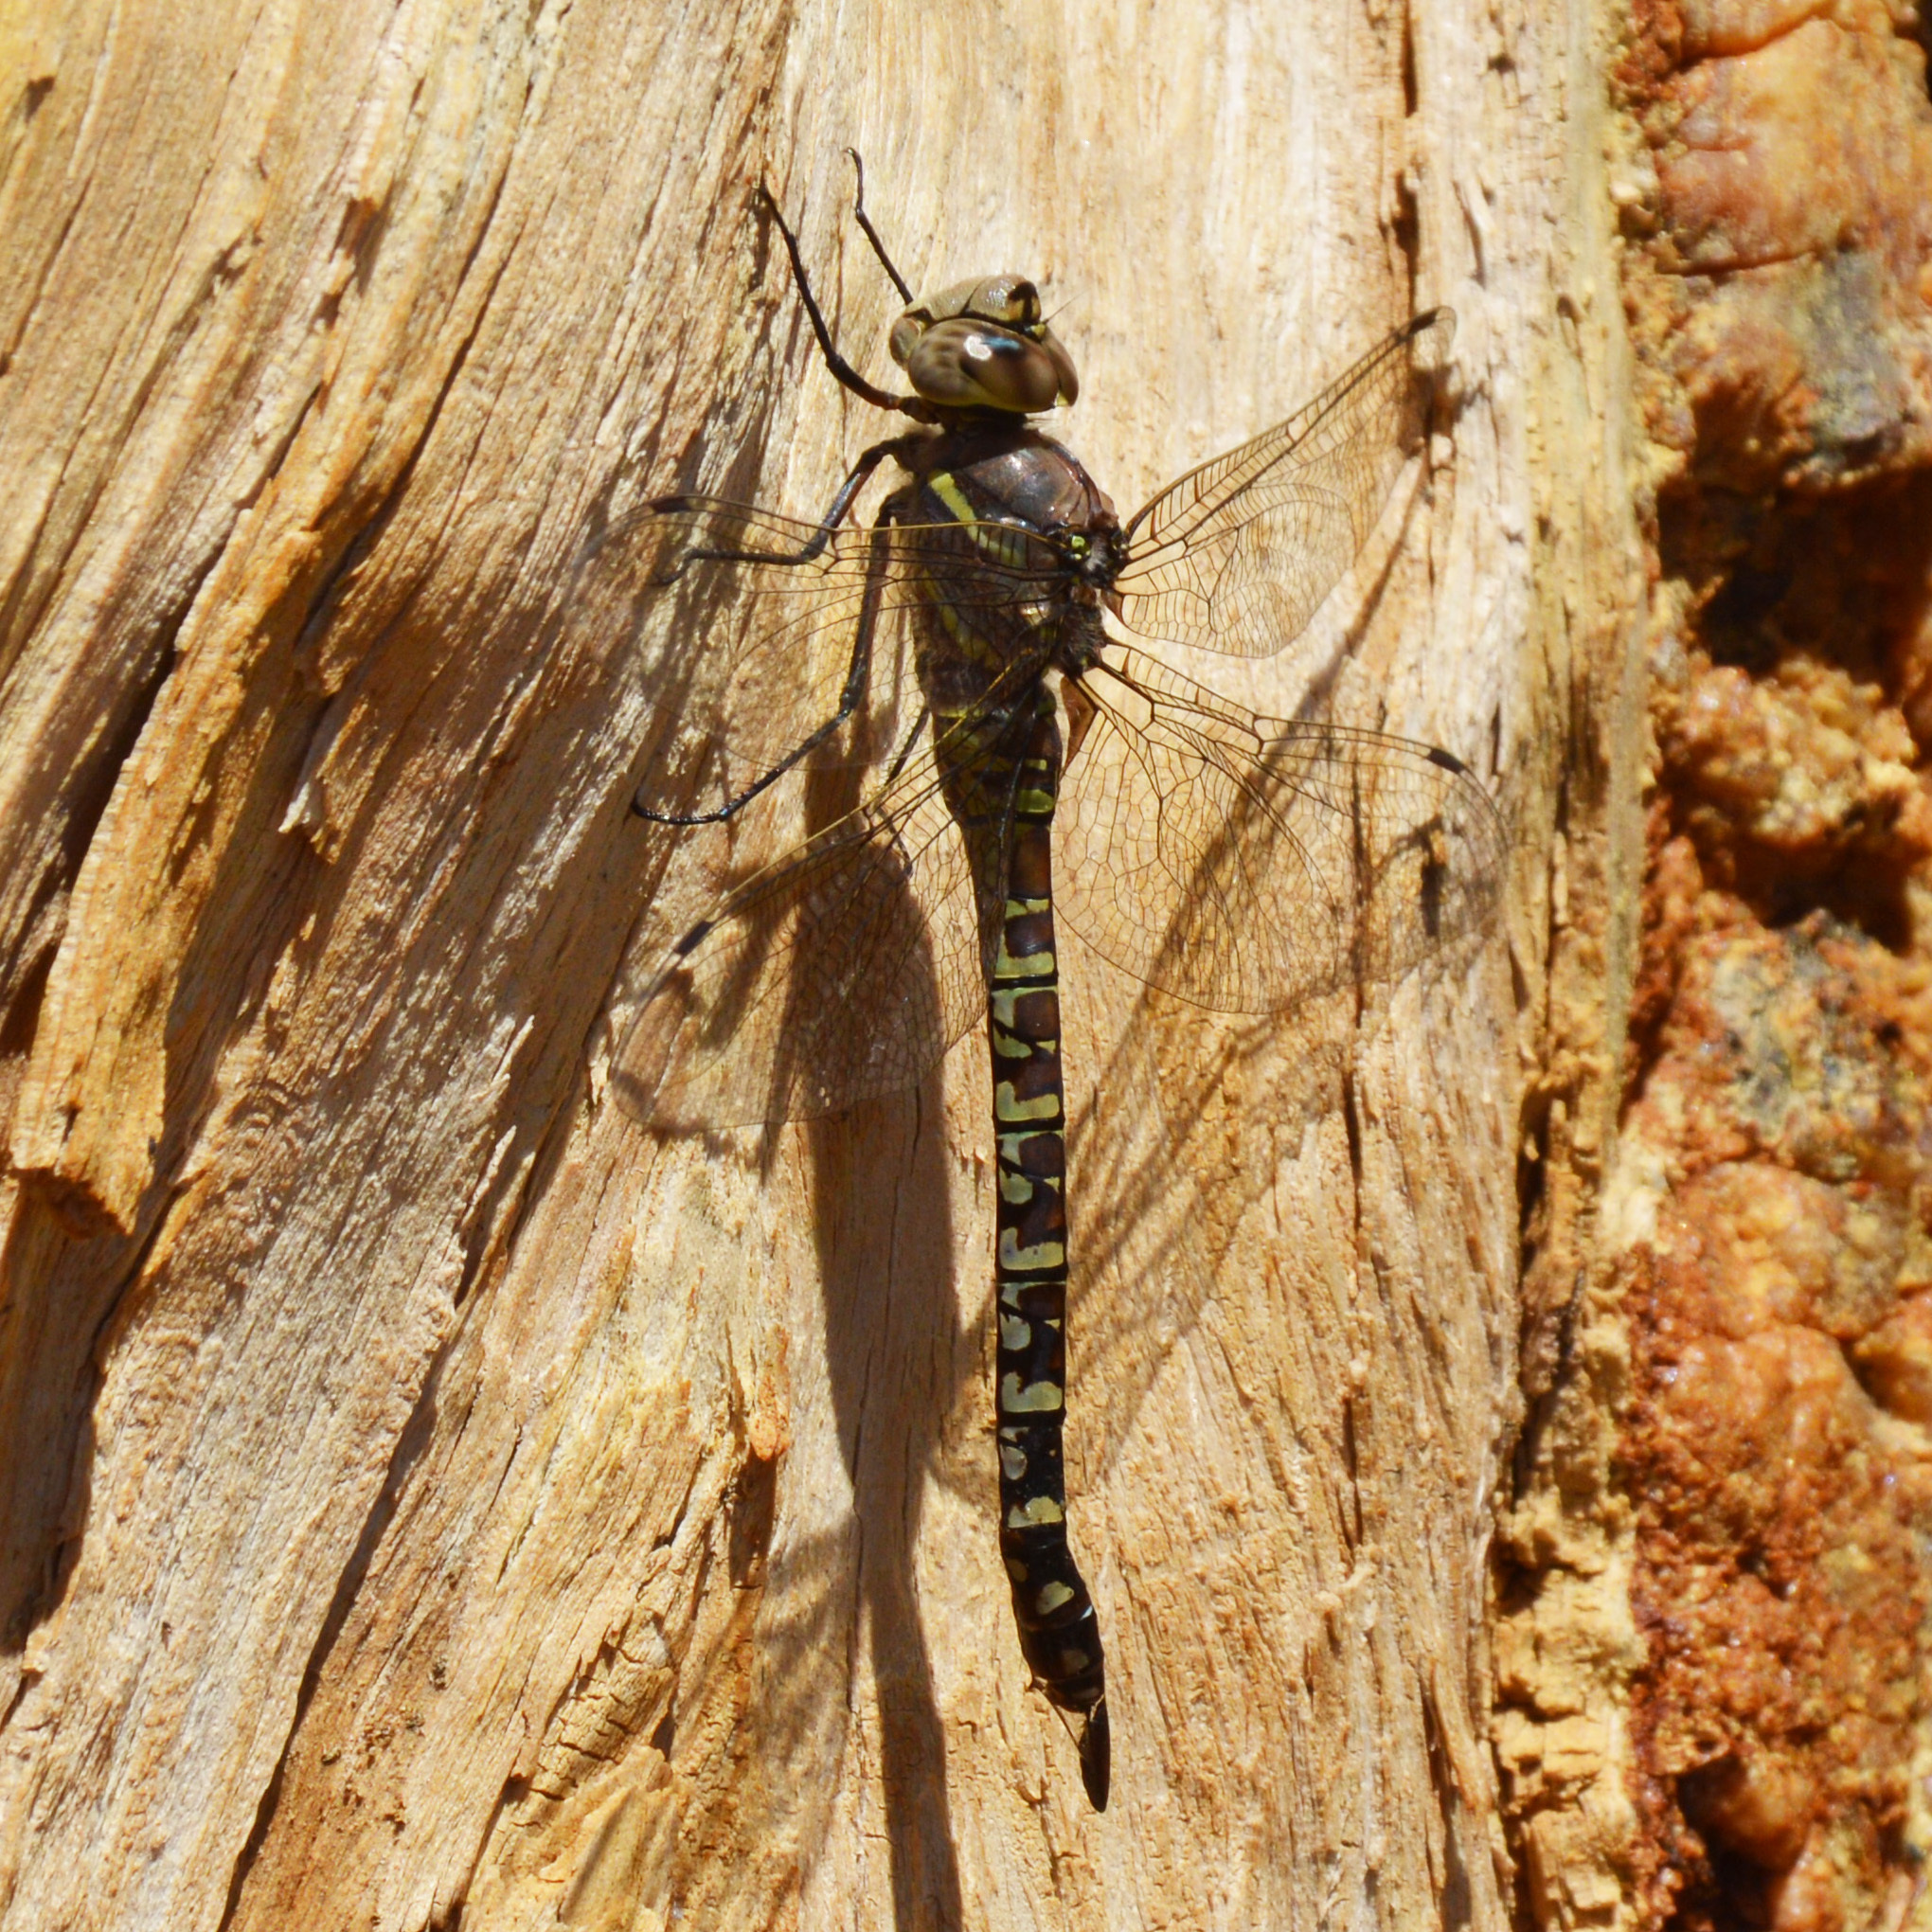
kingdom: Animalia
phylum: Arthropoda
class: Insecta
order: Odonata
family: Aeshnidae
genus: Aeshna
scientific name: Aeshna interrupta
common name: Variable darner
